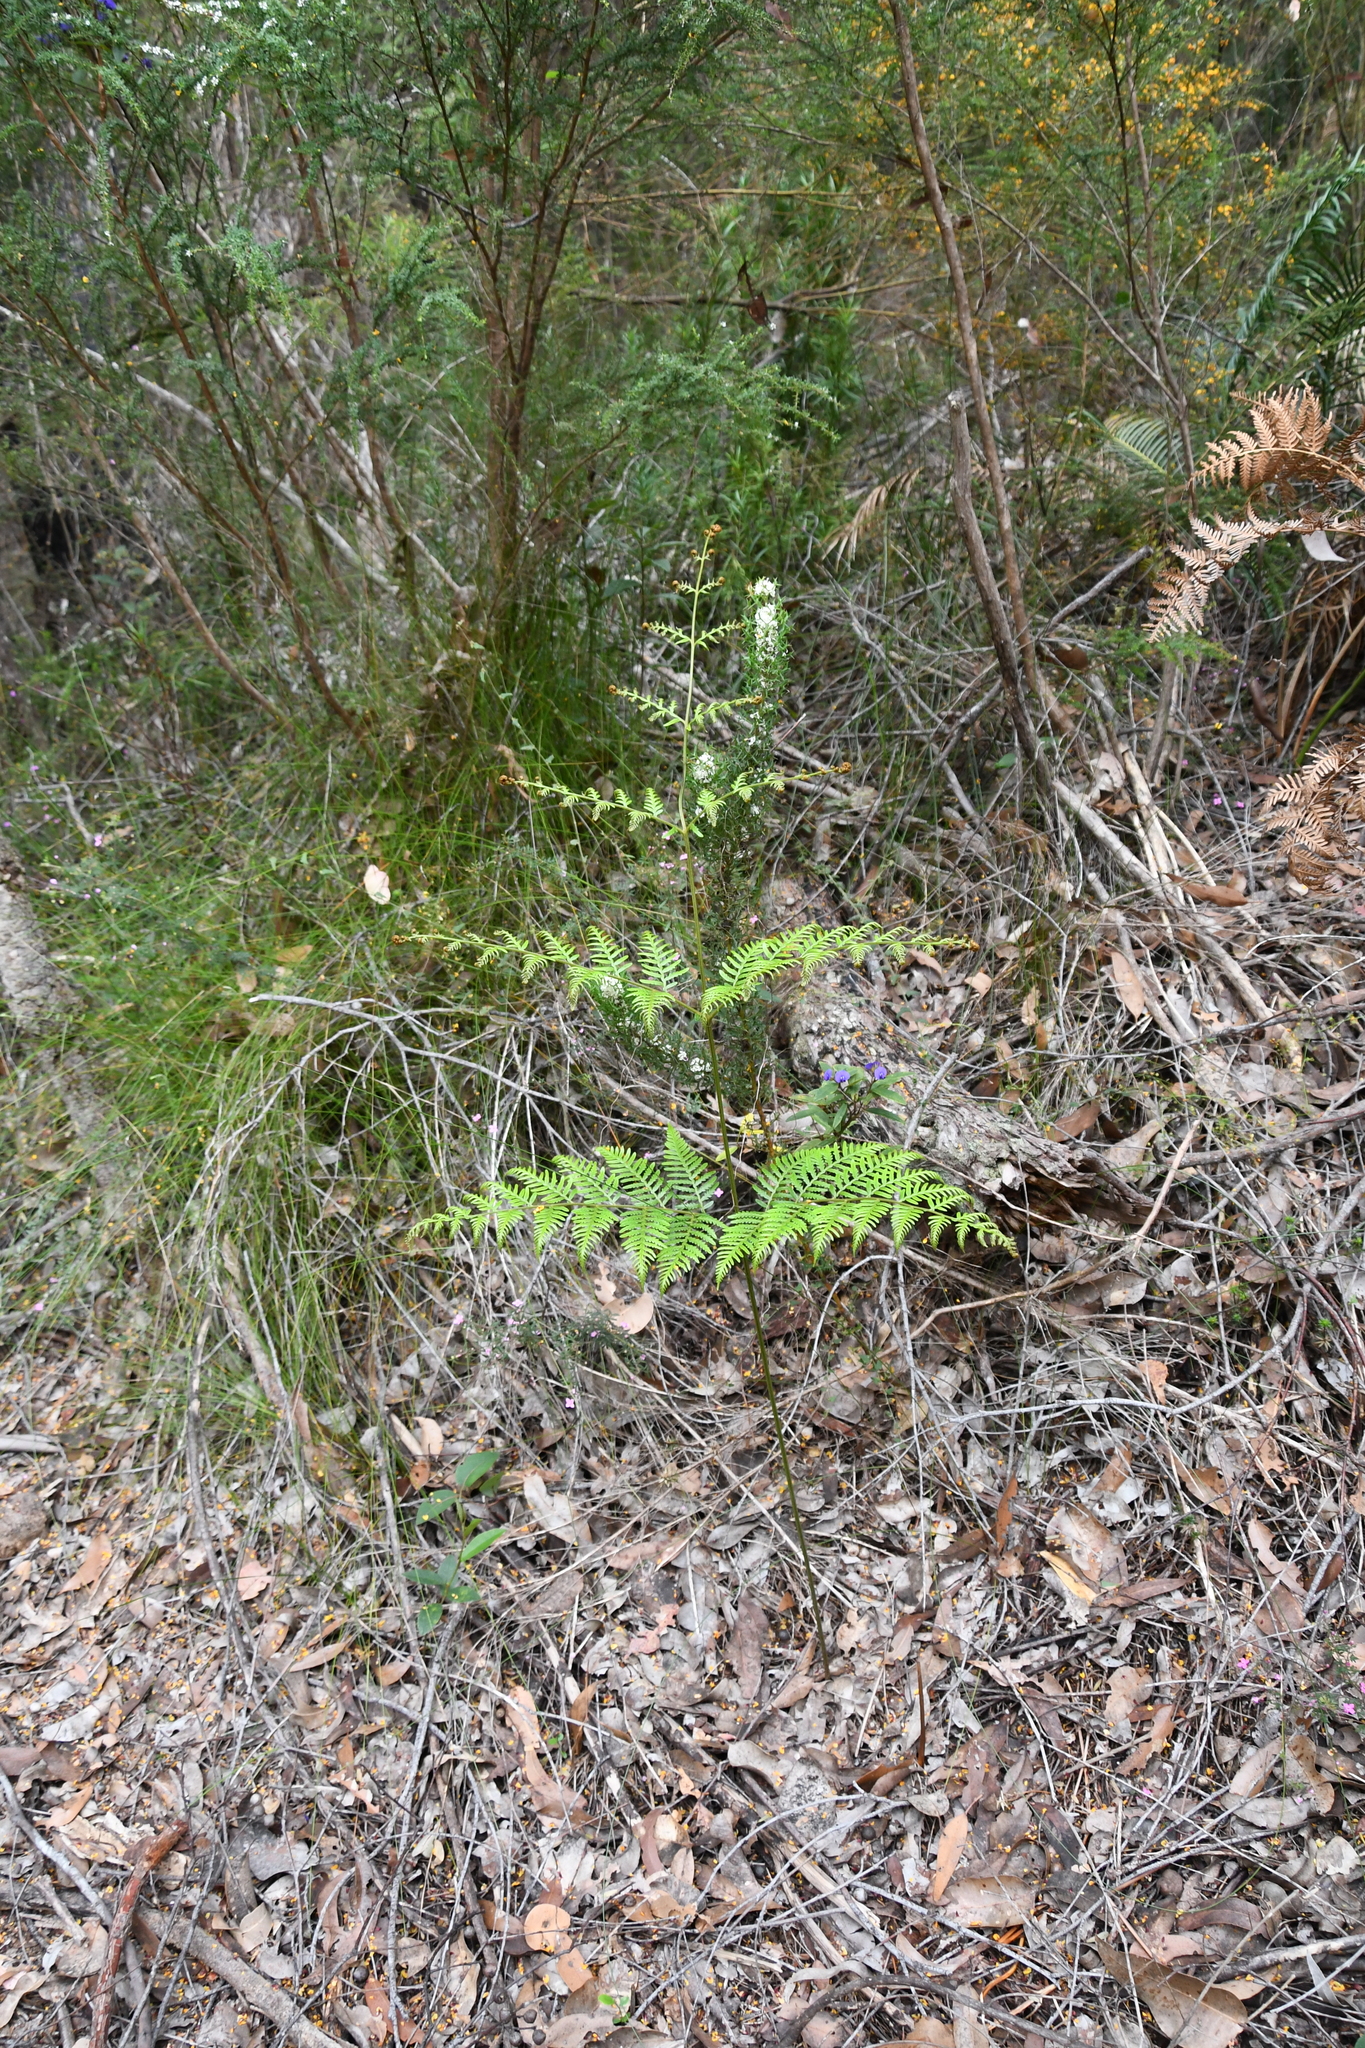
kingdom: Plantae
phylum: Tracheophyta
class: Polypodiopsida
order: Polypodiales
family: Dennstaedtiaceae
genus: Pteridium
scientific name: Pteridium esculentum
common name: Bracken fern
